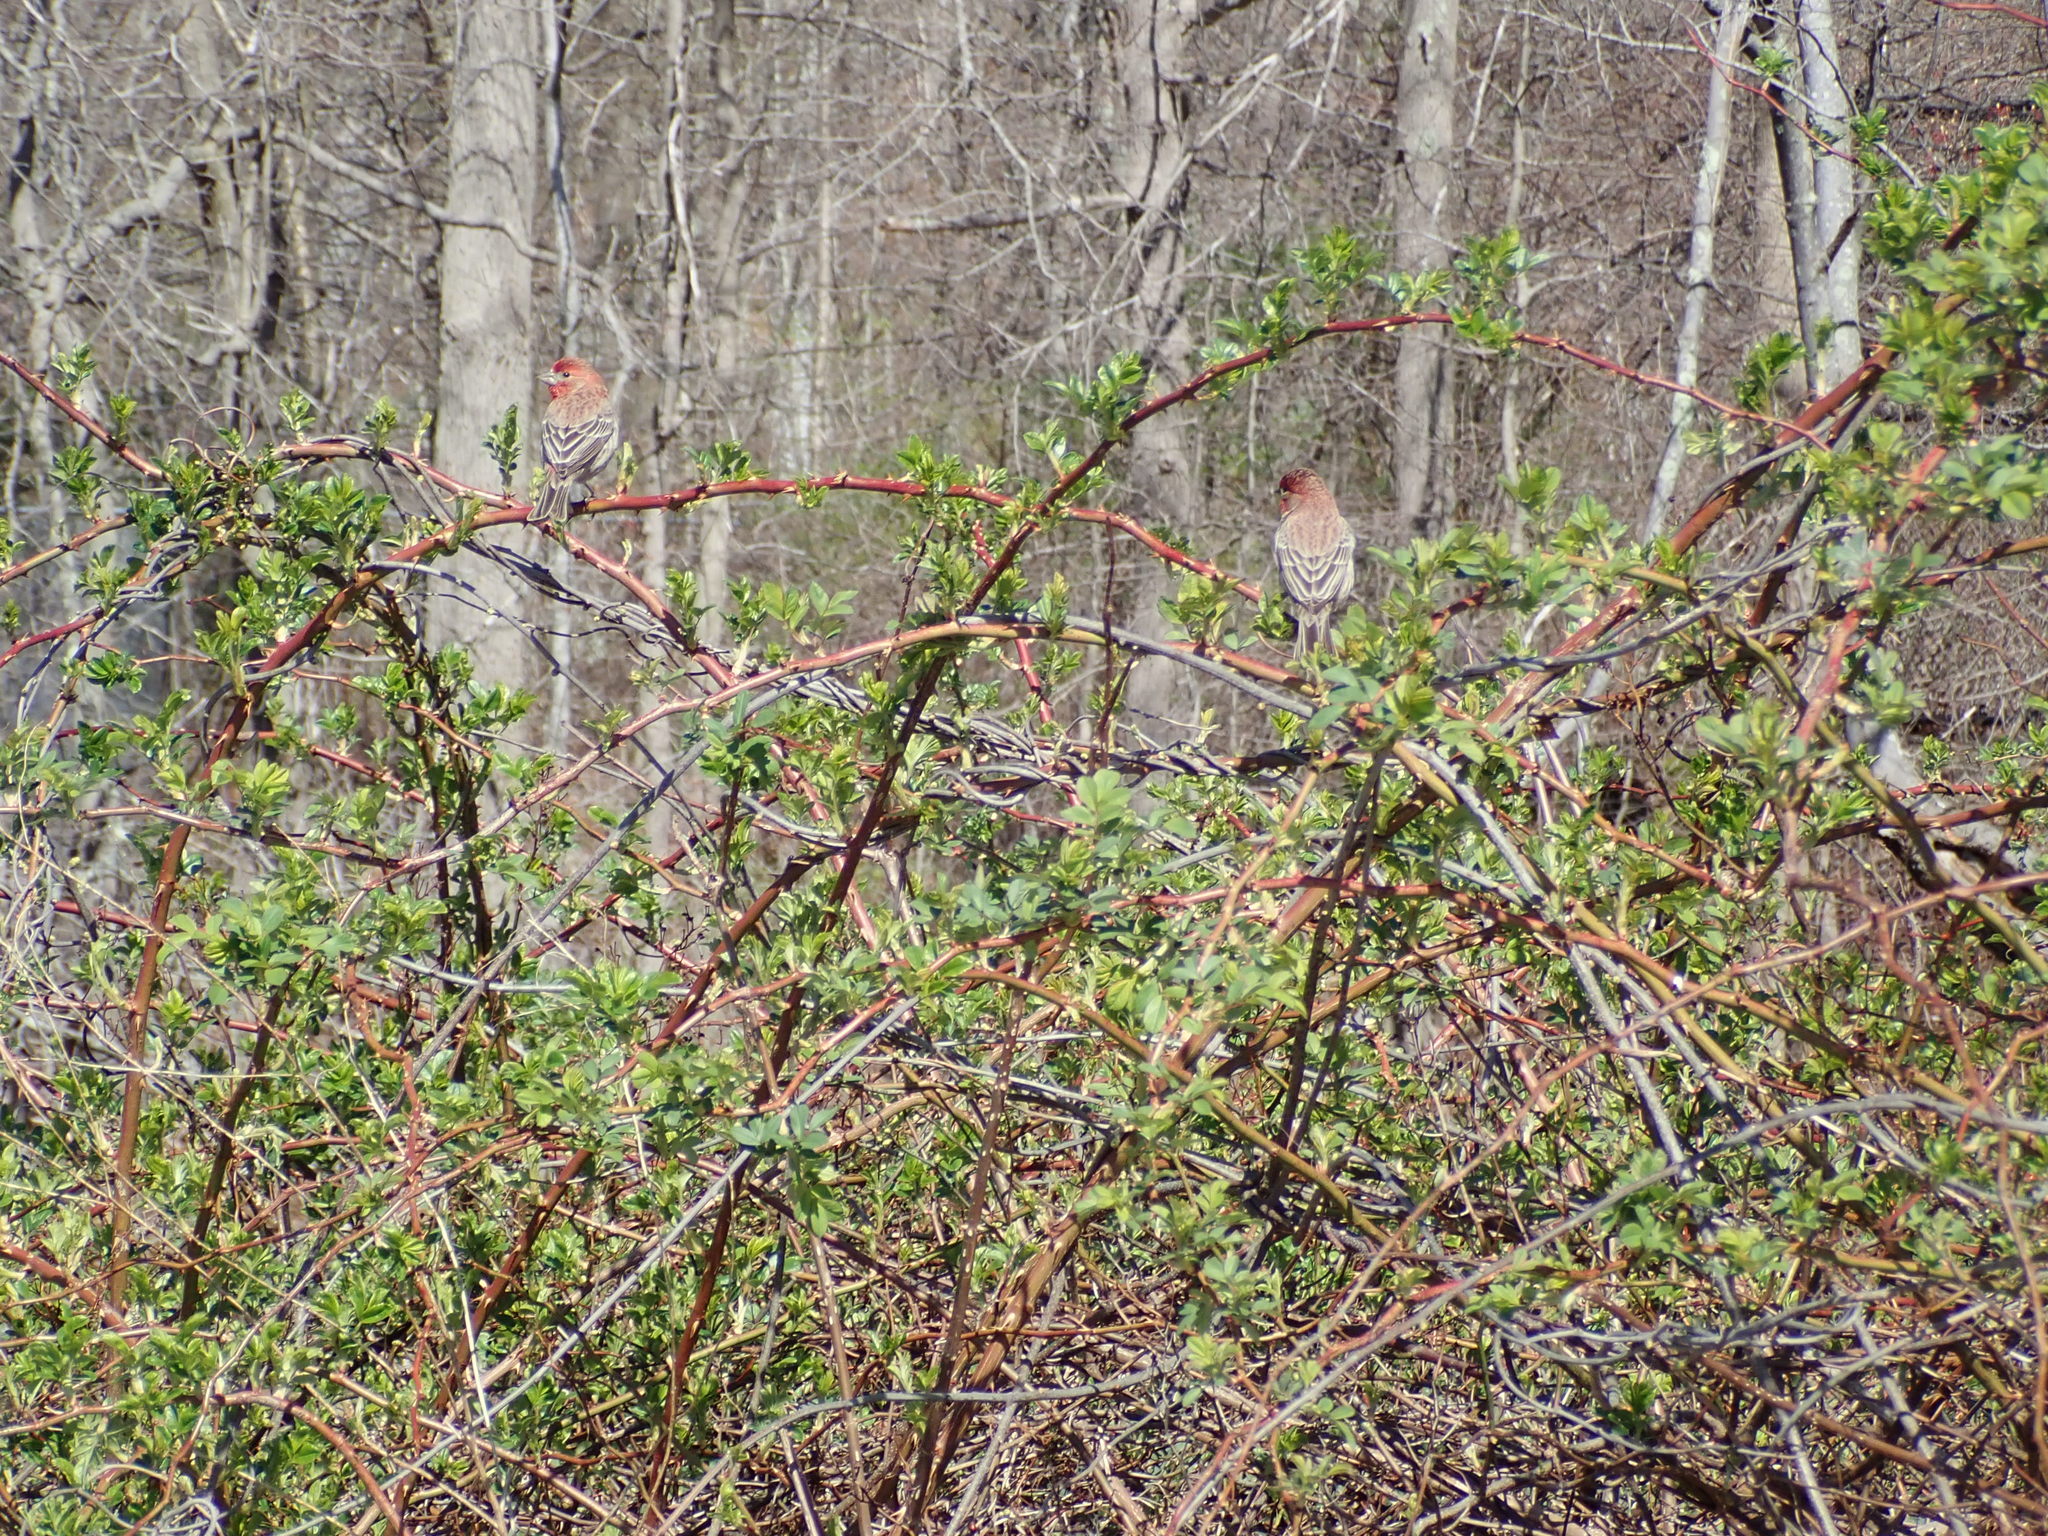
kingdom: Animalia
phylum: Chordata
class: Aves
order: Passeriformes
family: Fringillidae
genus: Haemorhous
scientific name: Haemorhous mexicanus
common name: House finch
